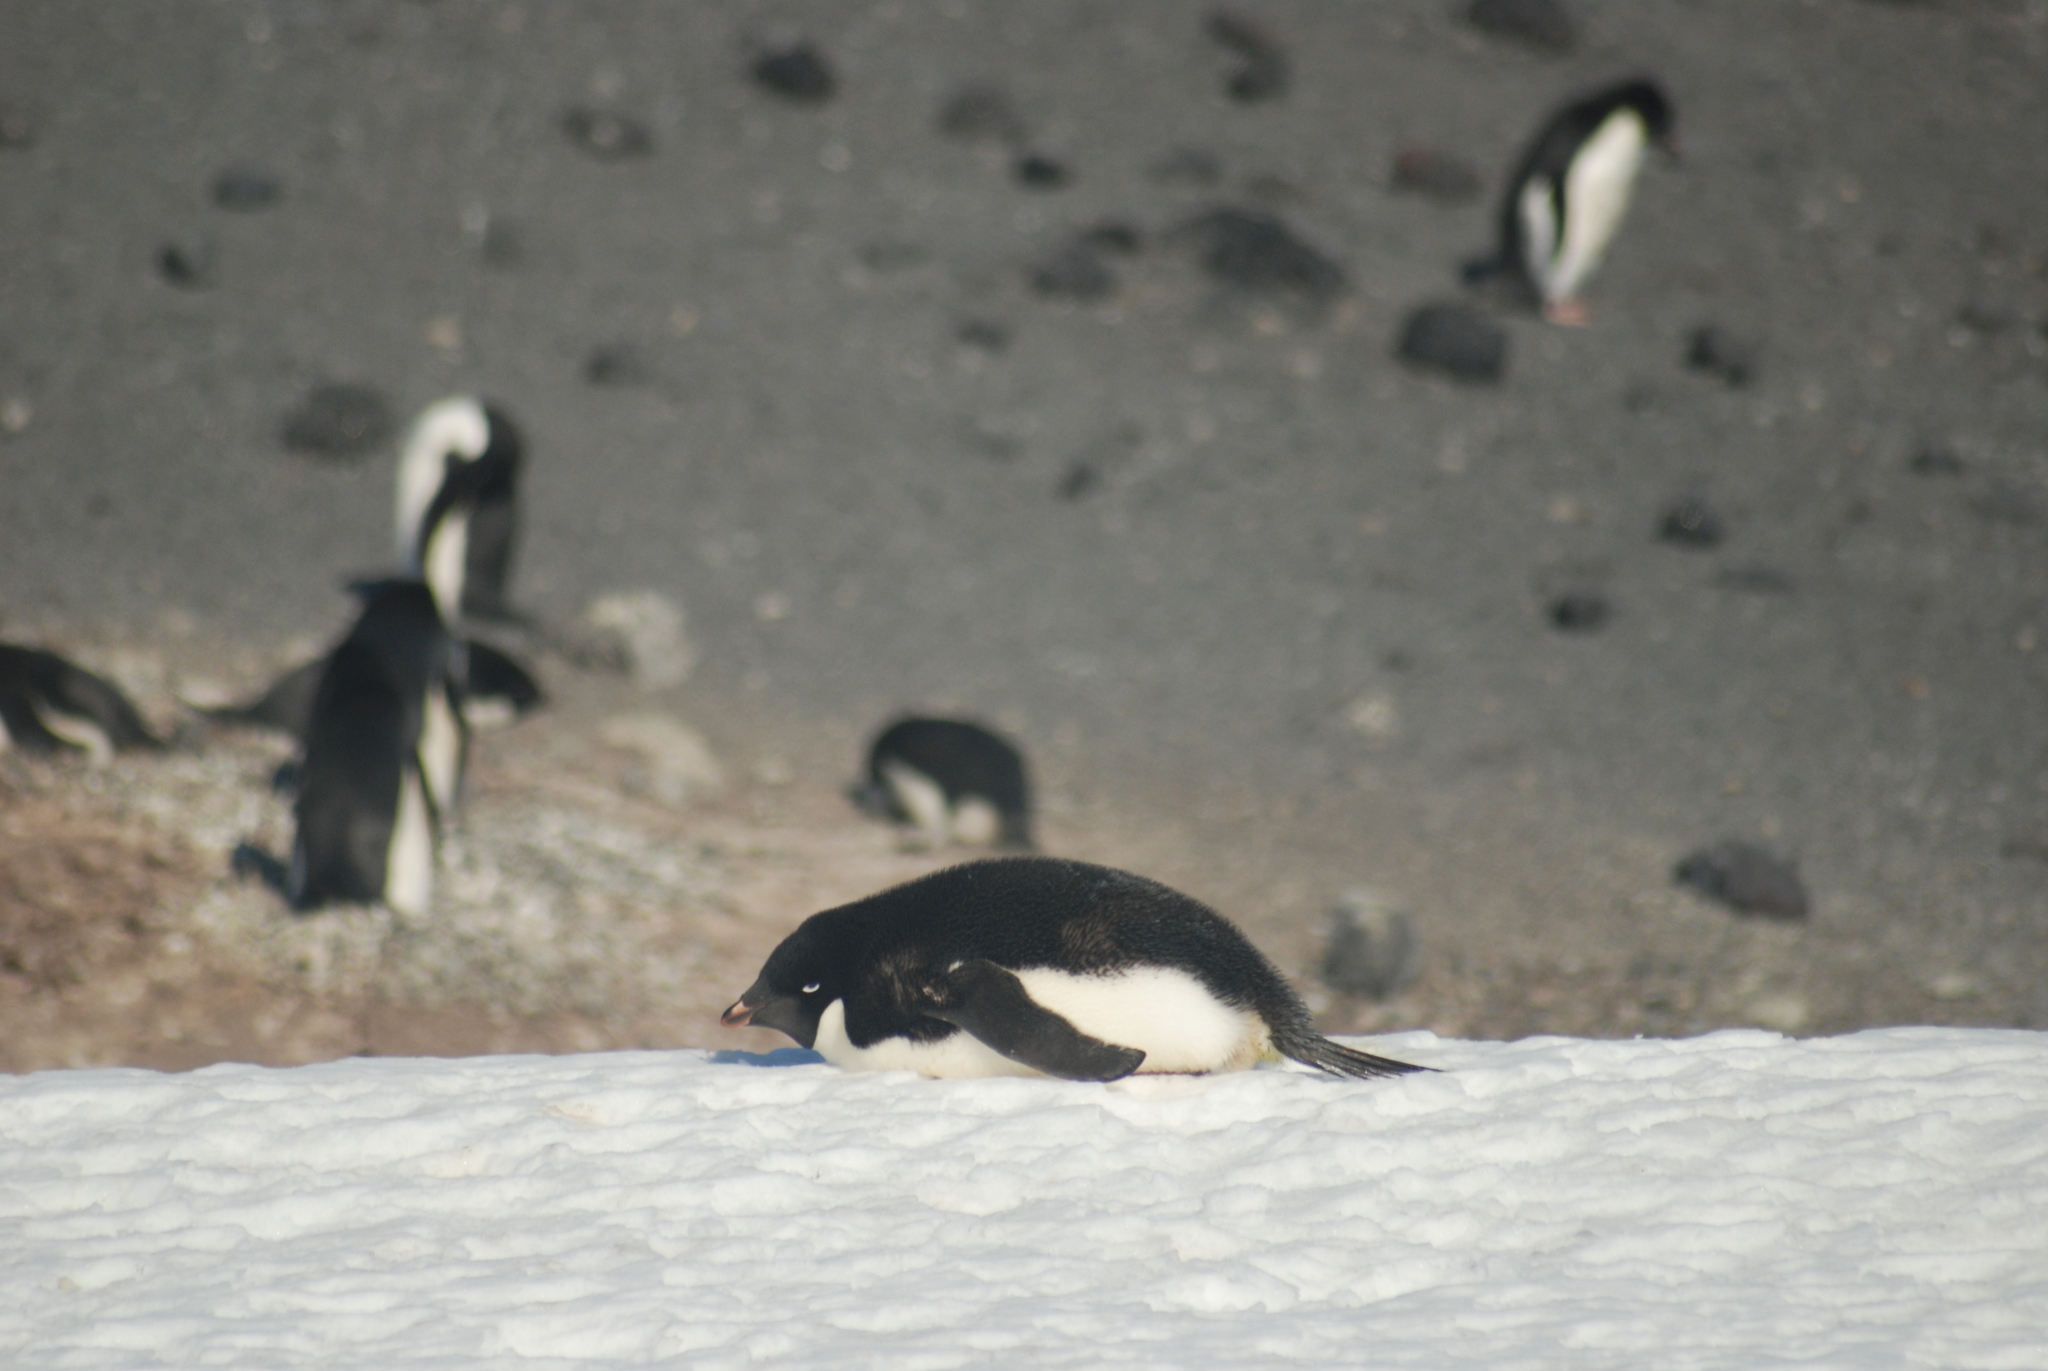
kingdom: Animalia
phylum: Chordata
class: Aves
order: Sphenisciformes
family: Spheniscidae
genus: Pygoscelis
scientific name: Pygoscelis adeliae
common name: Adelie penguin
